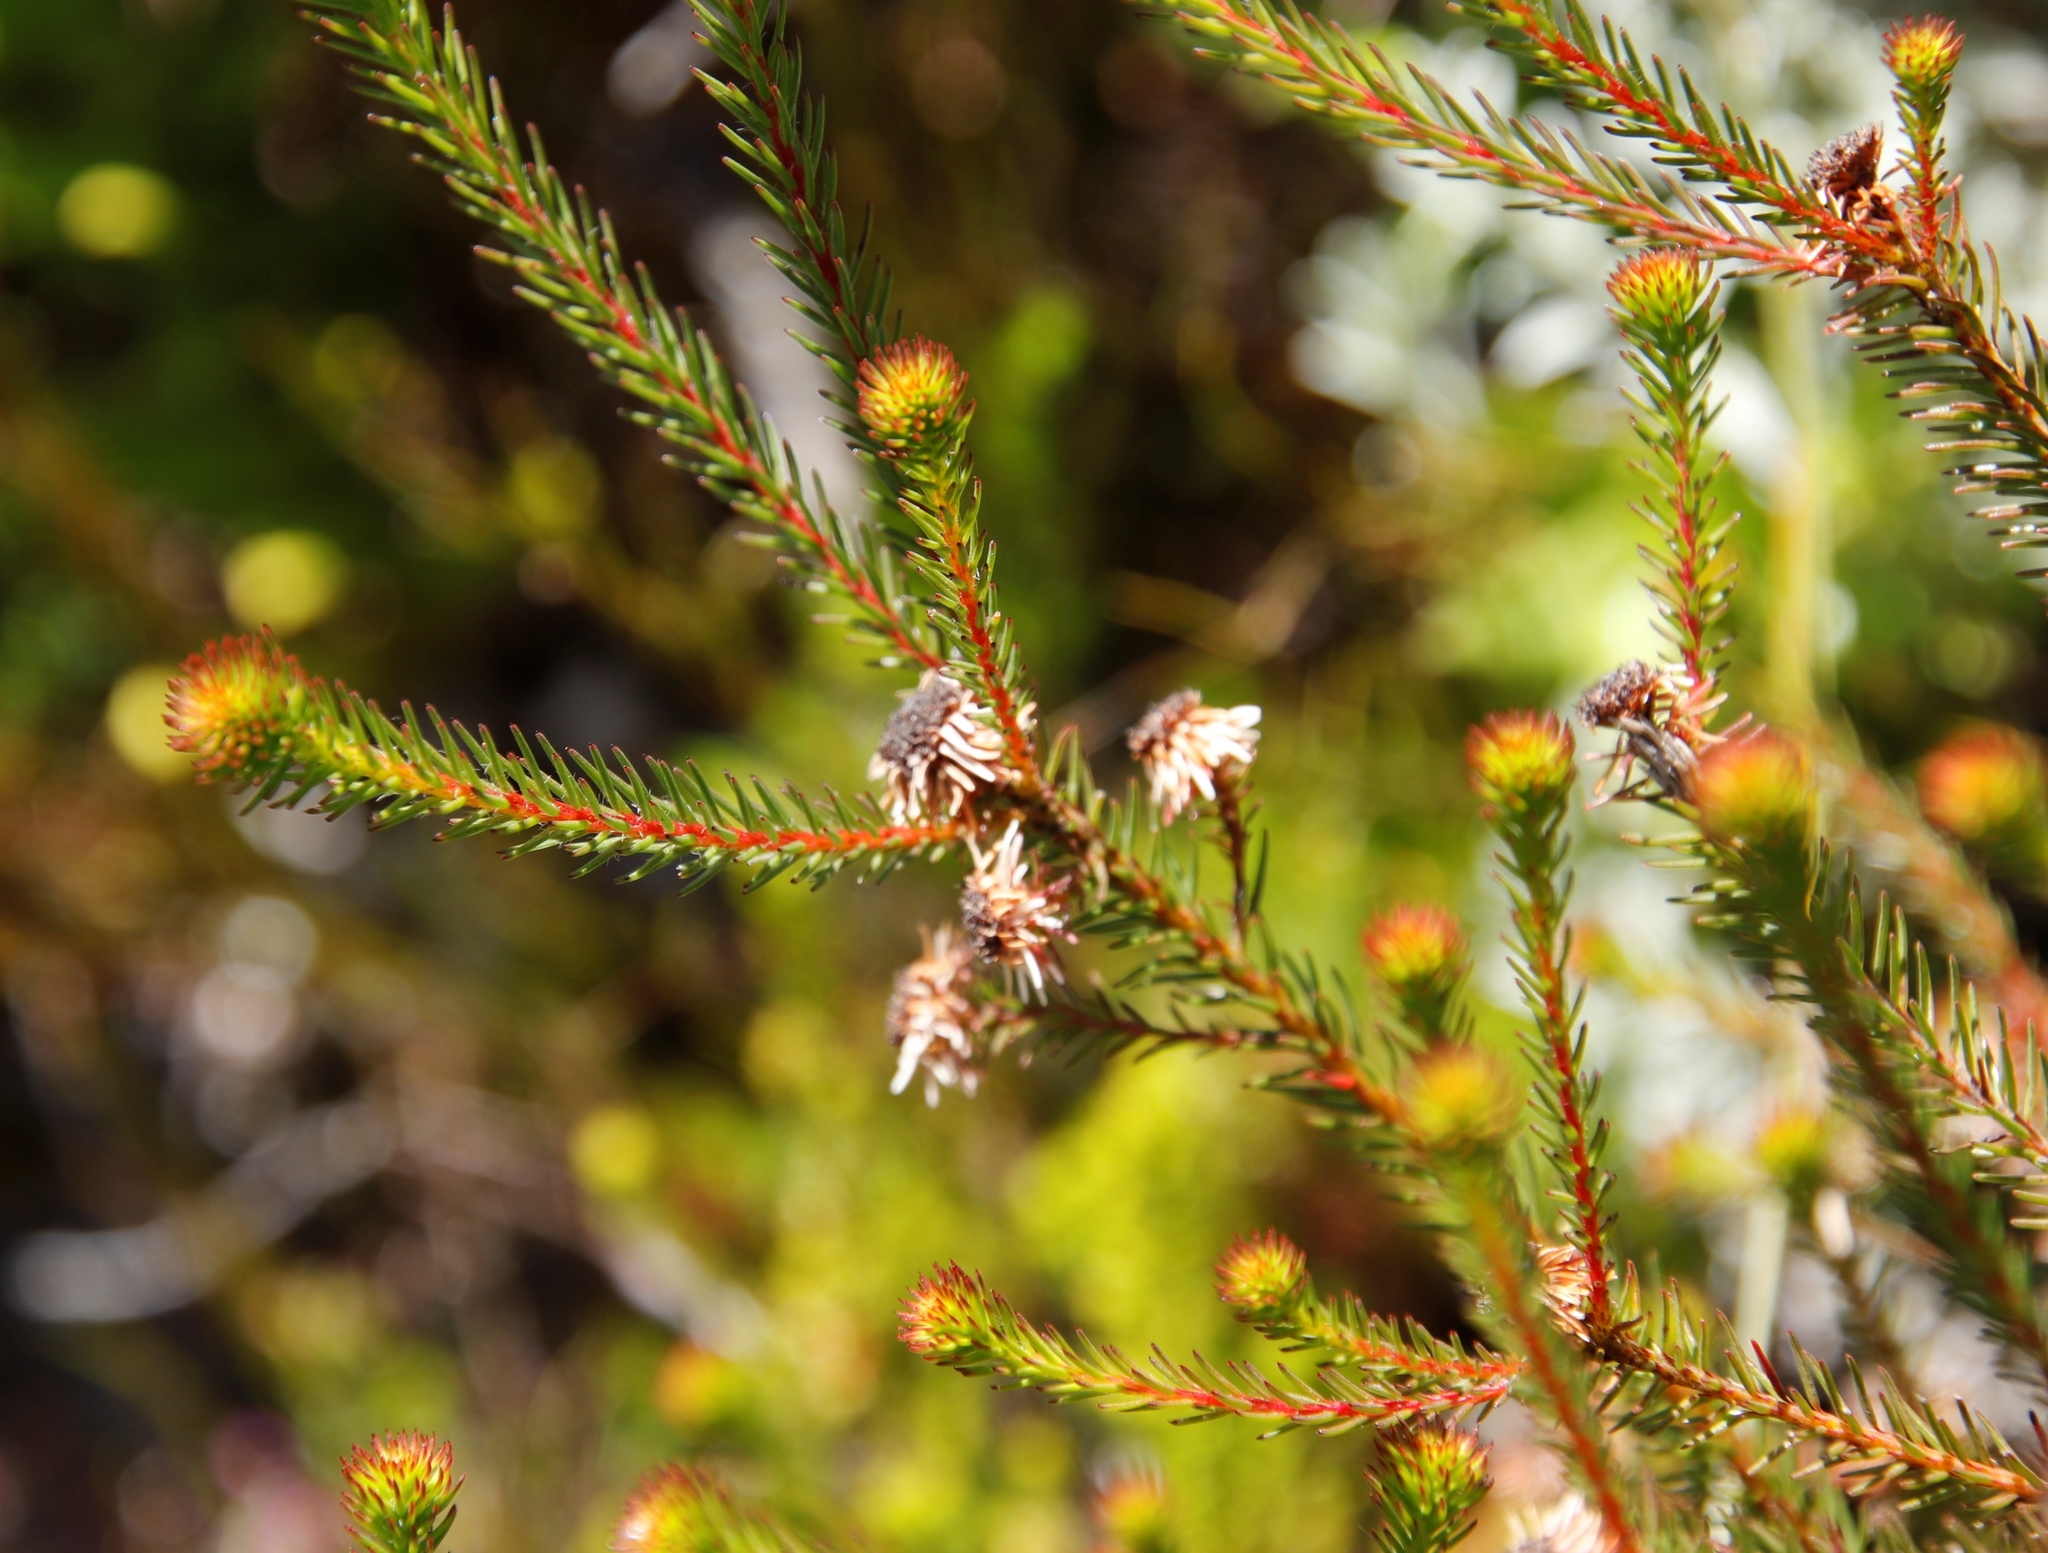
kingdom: Plantae
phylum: Tracheophyta
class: Magnoliopsida
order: Bruniales
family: Bruniaceae
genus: Staavia
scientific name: Staavia glutinosa
